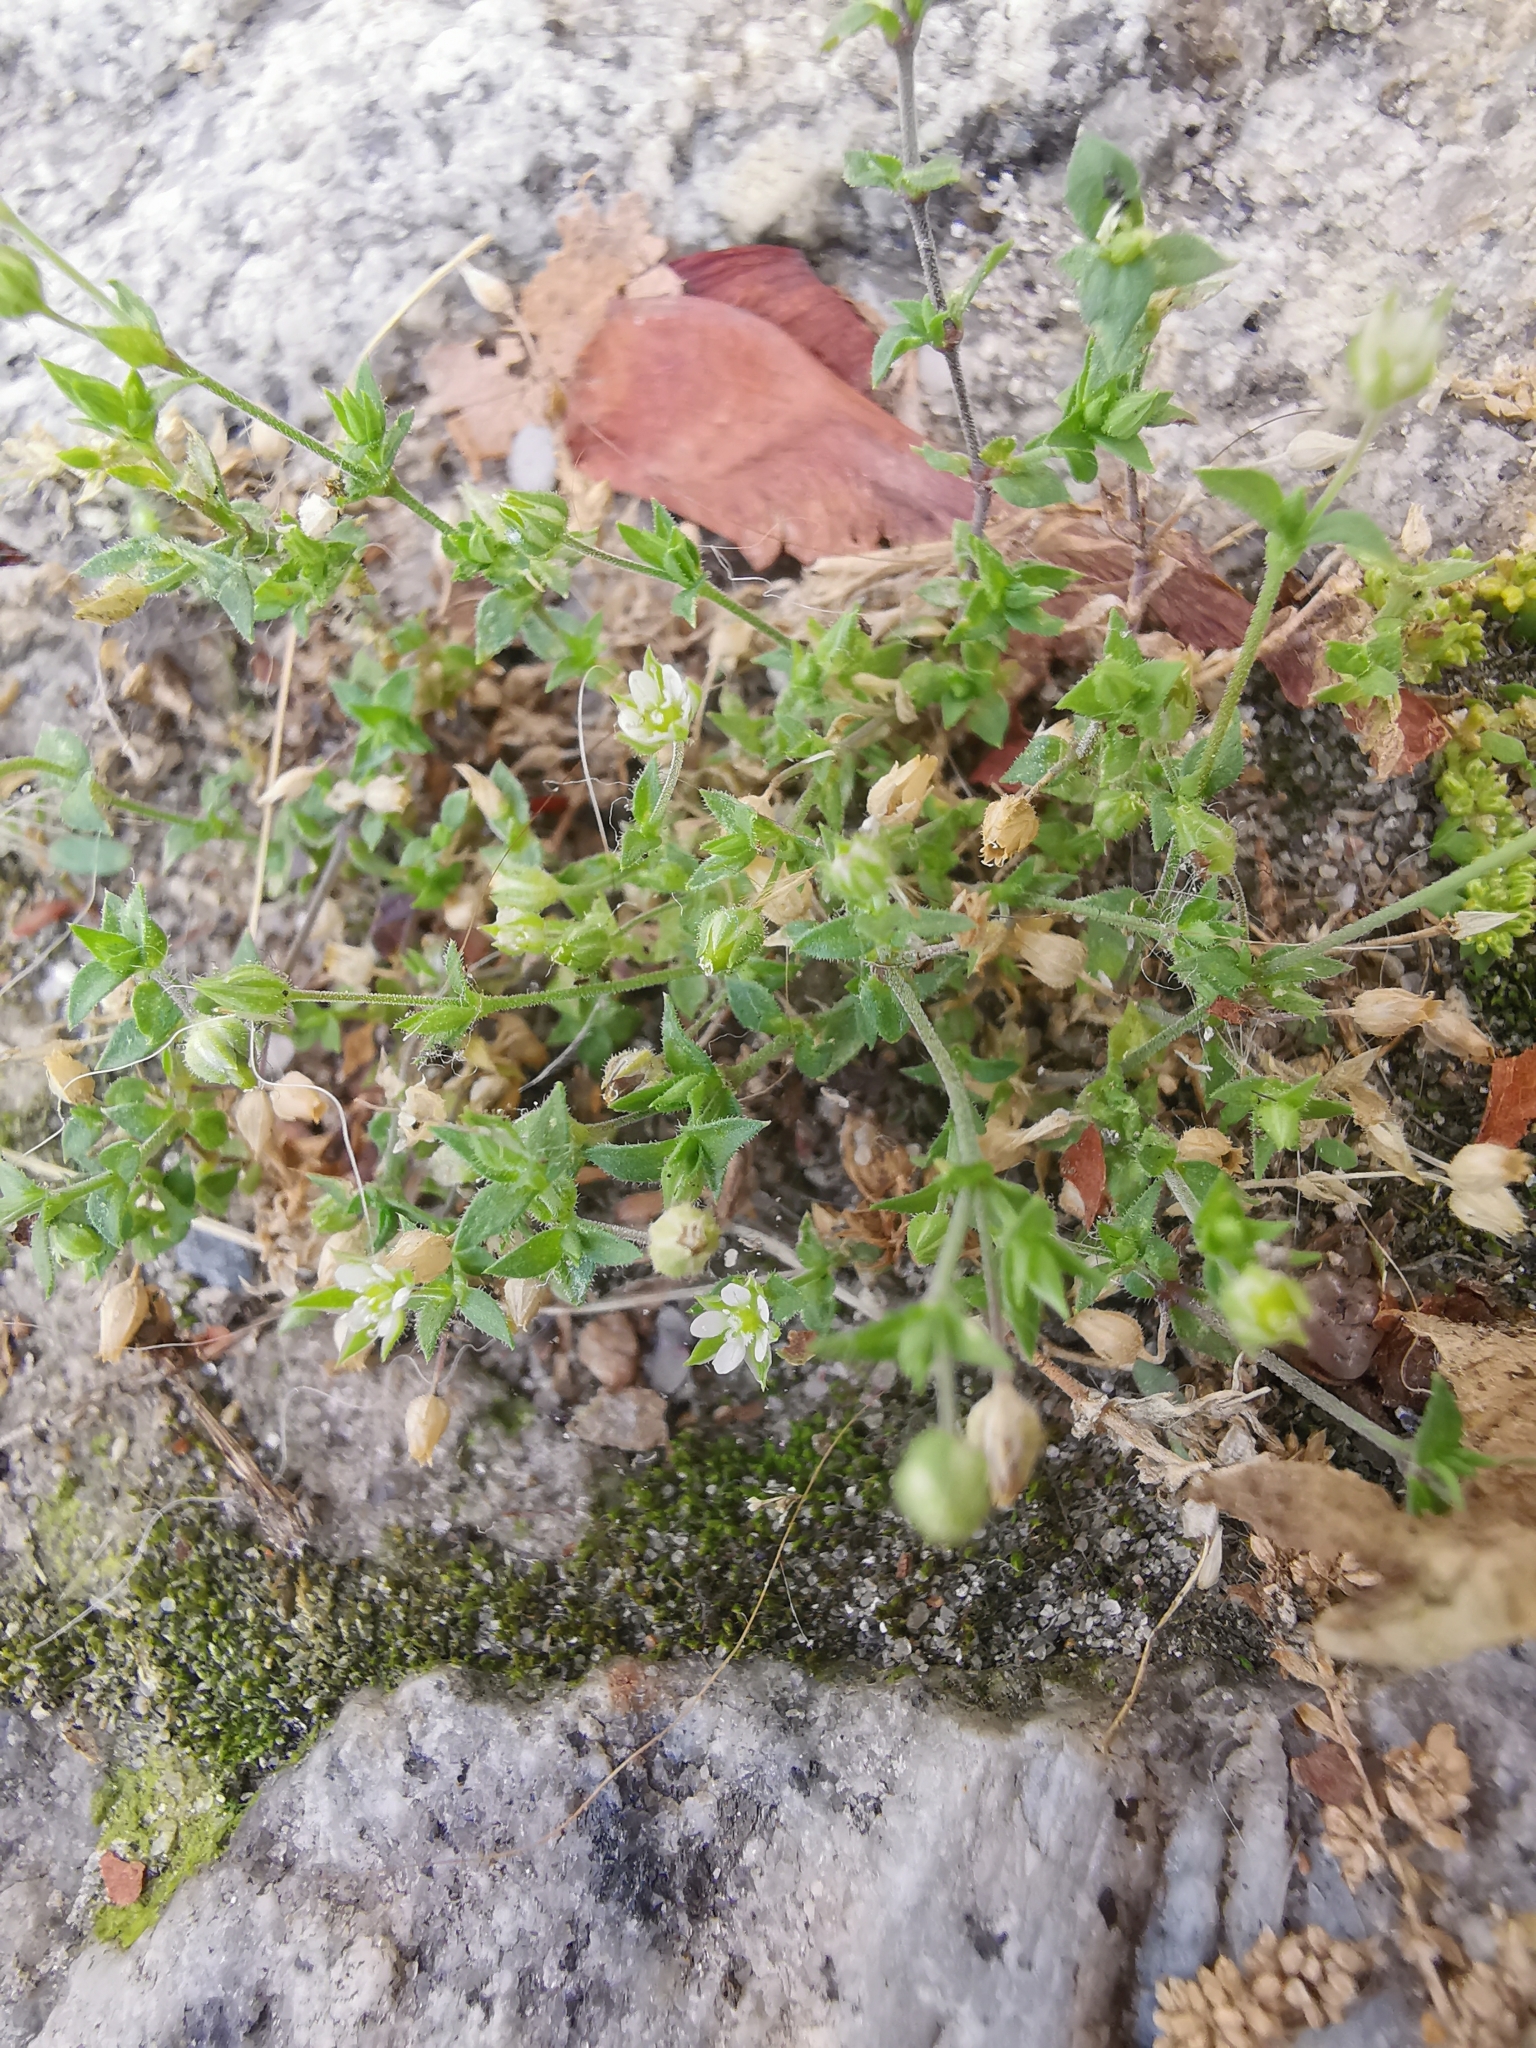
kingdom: Plantae
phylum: Tracheophyta
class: Magnoliopsida
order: Caryophyllales
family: Caryophyllaceae
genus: Arenaria
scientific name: Arenaria serpyllifolia
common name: Thyme-leaved sandwort
